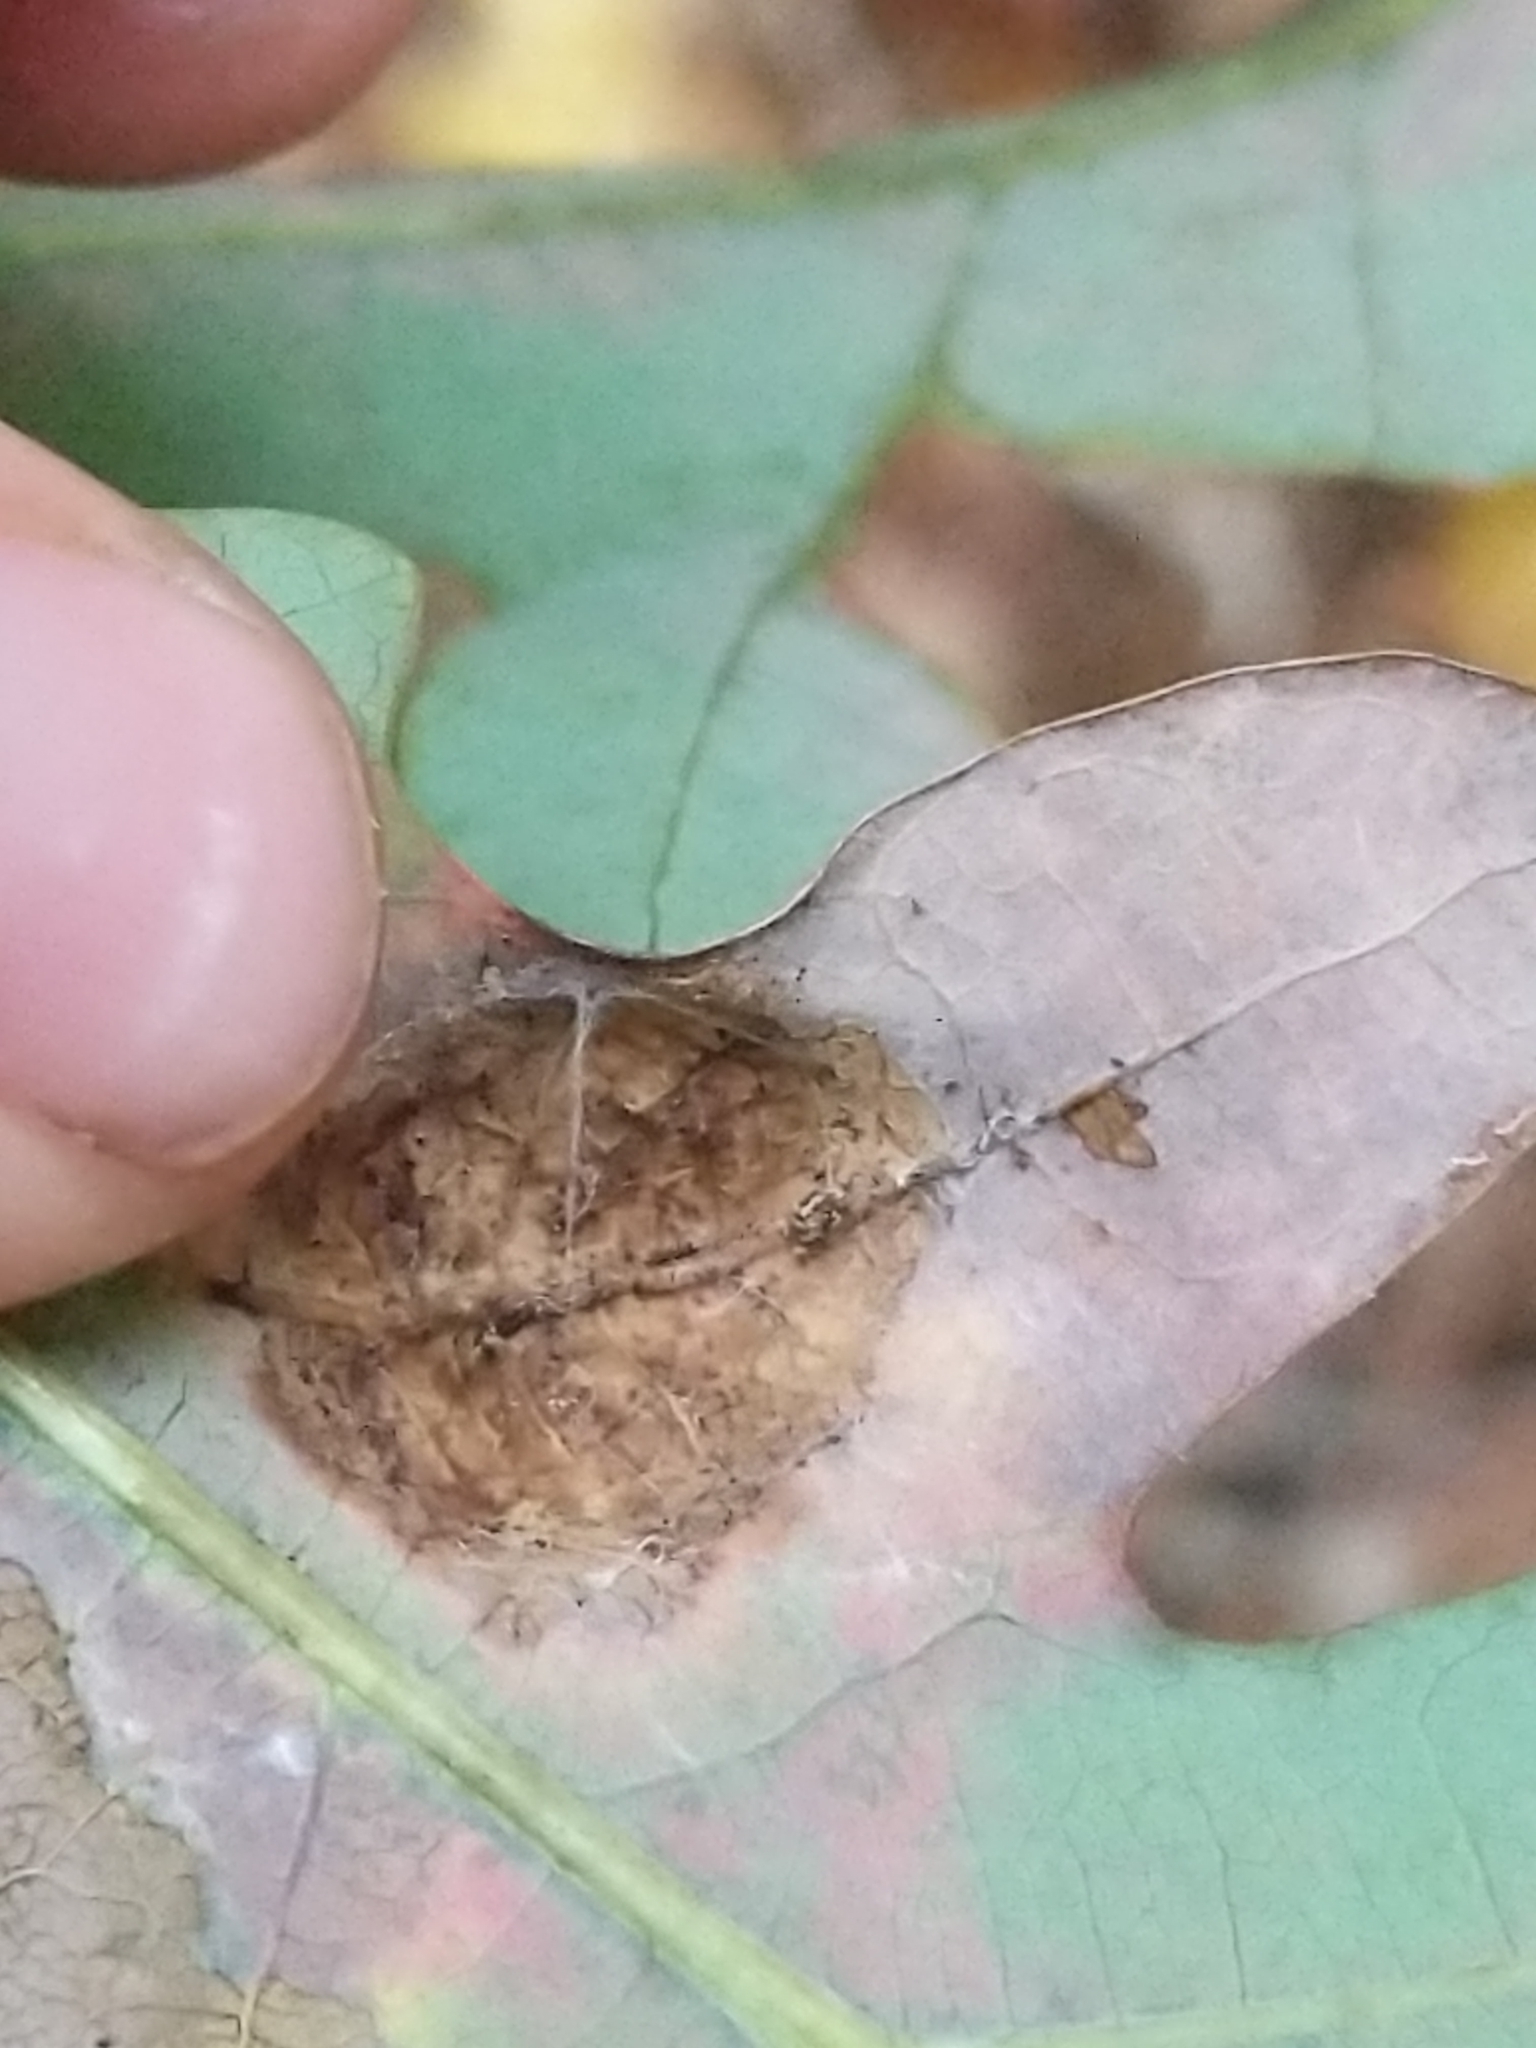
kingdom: Fungi
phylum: Ascomycota
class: Taphrinomycetes
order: Taphrinales
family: Taphrinaceae
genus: Taphrina
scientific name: Taphrina caerulescens
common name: Oak leaf blister
